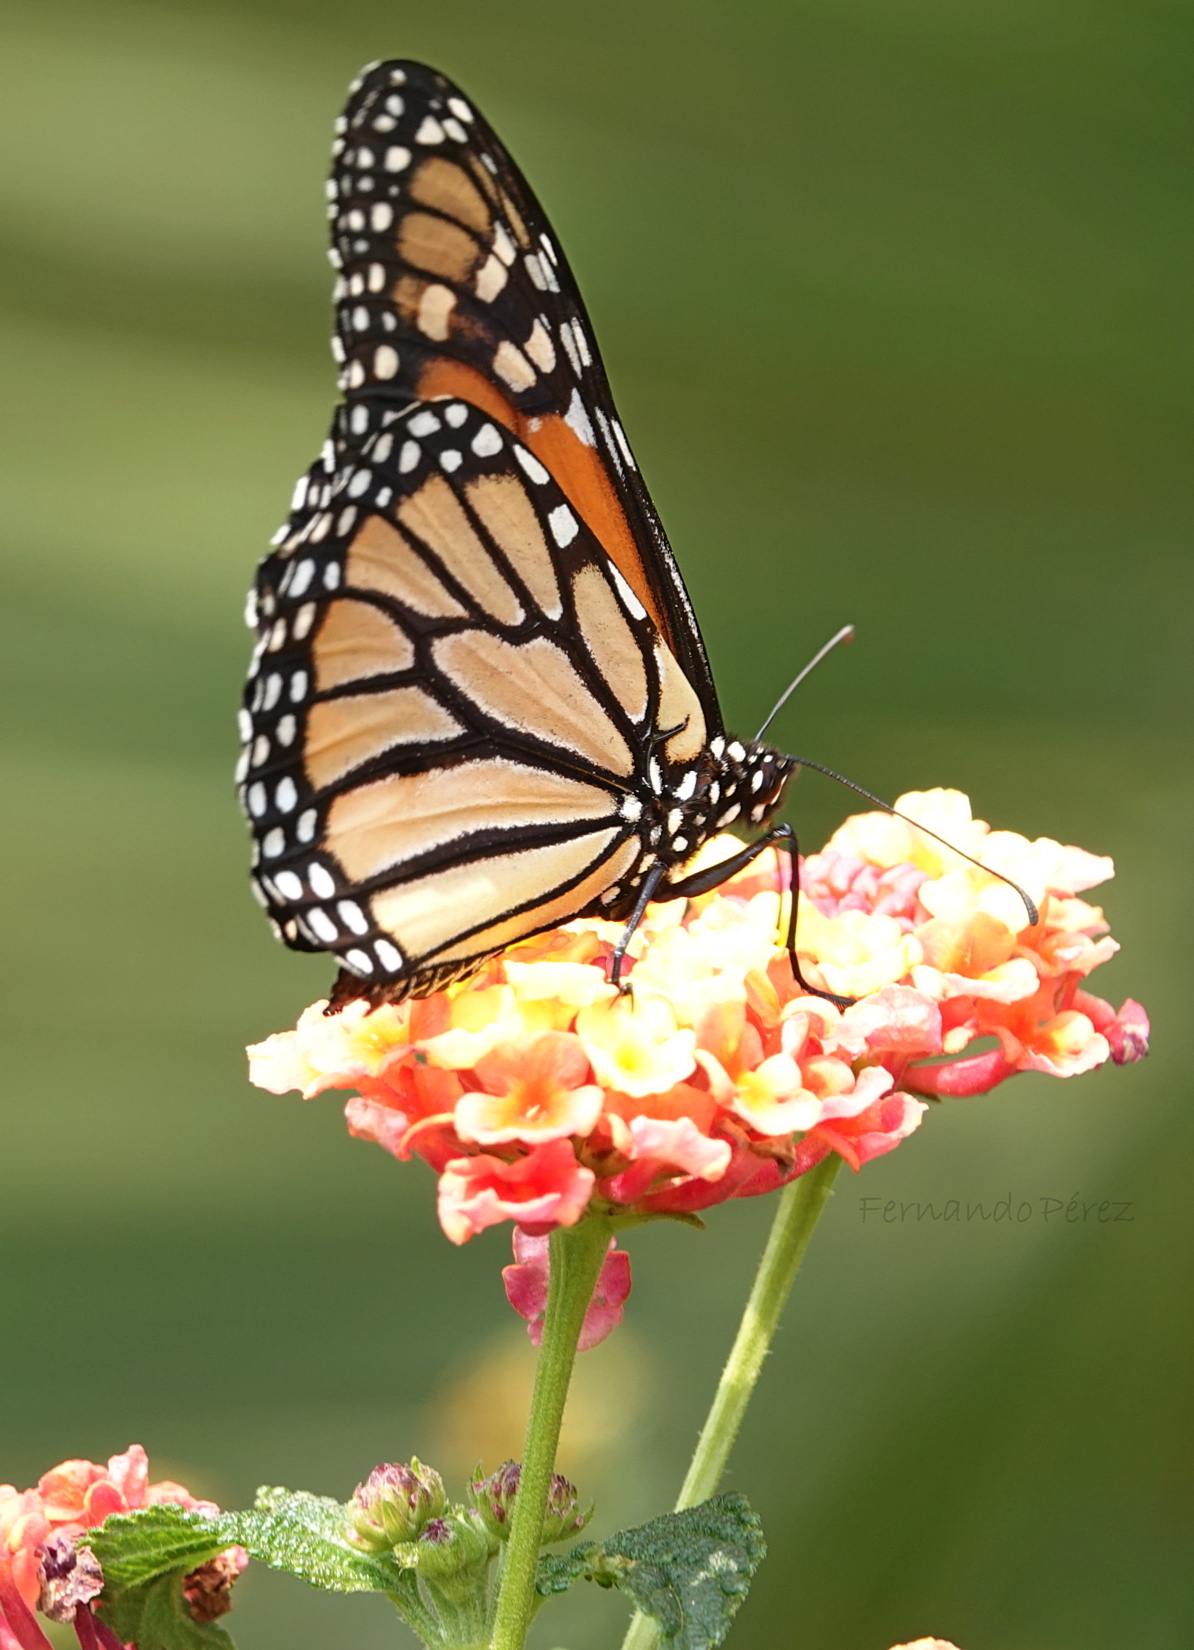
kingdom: Animalia
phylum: Arthropoda
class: Insecta
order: Lepidoptera
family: Nymphalidae
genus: Danaus
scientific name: Danaus plexippus
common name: Monarch
